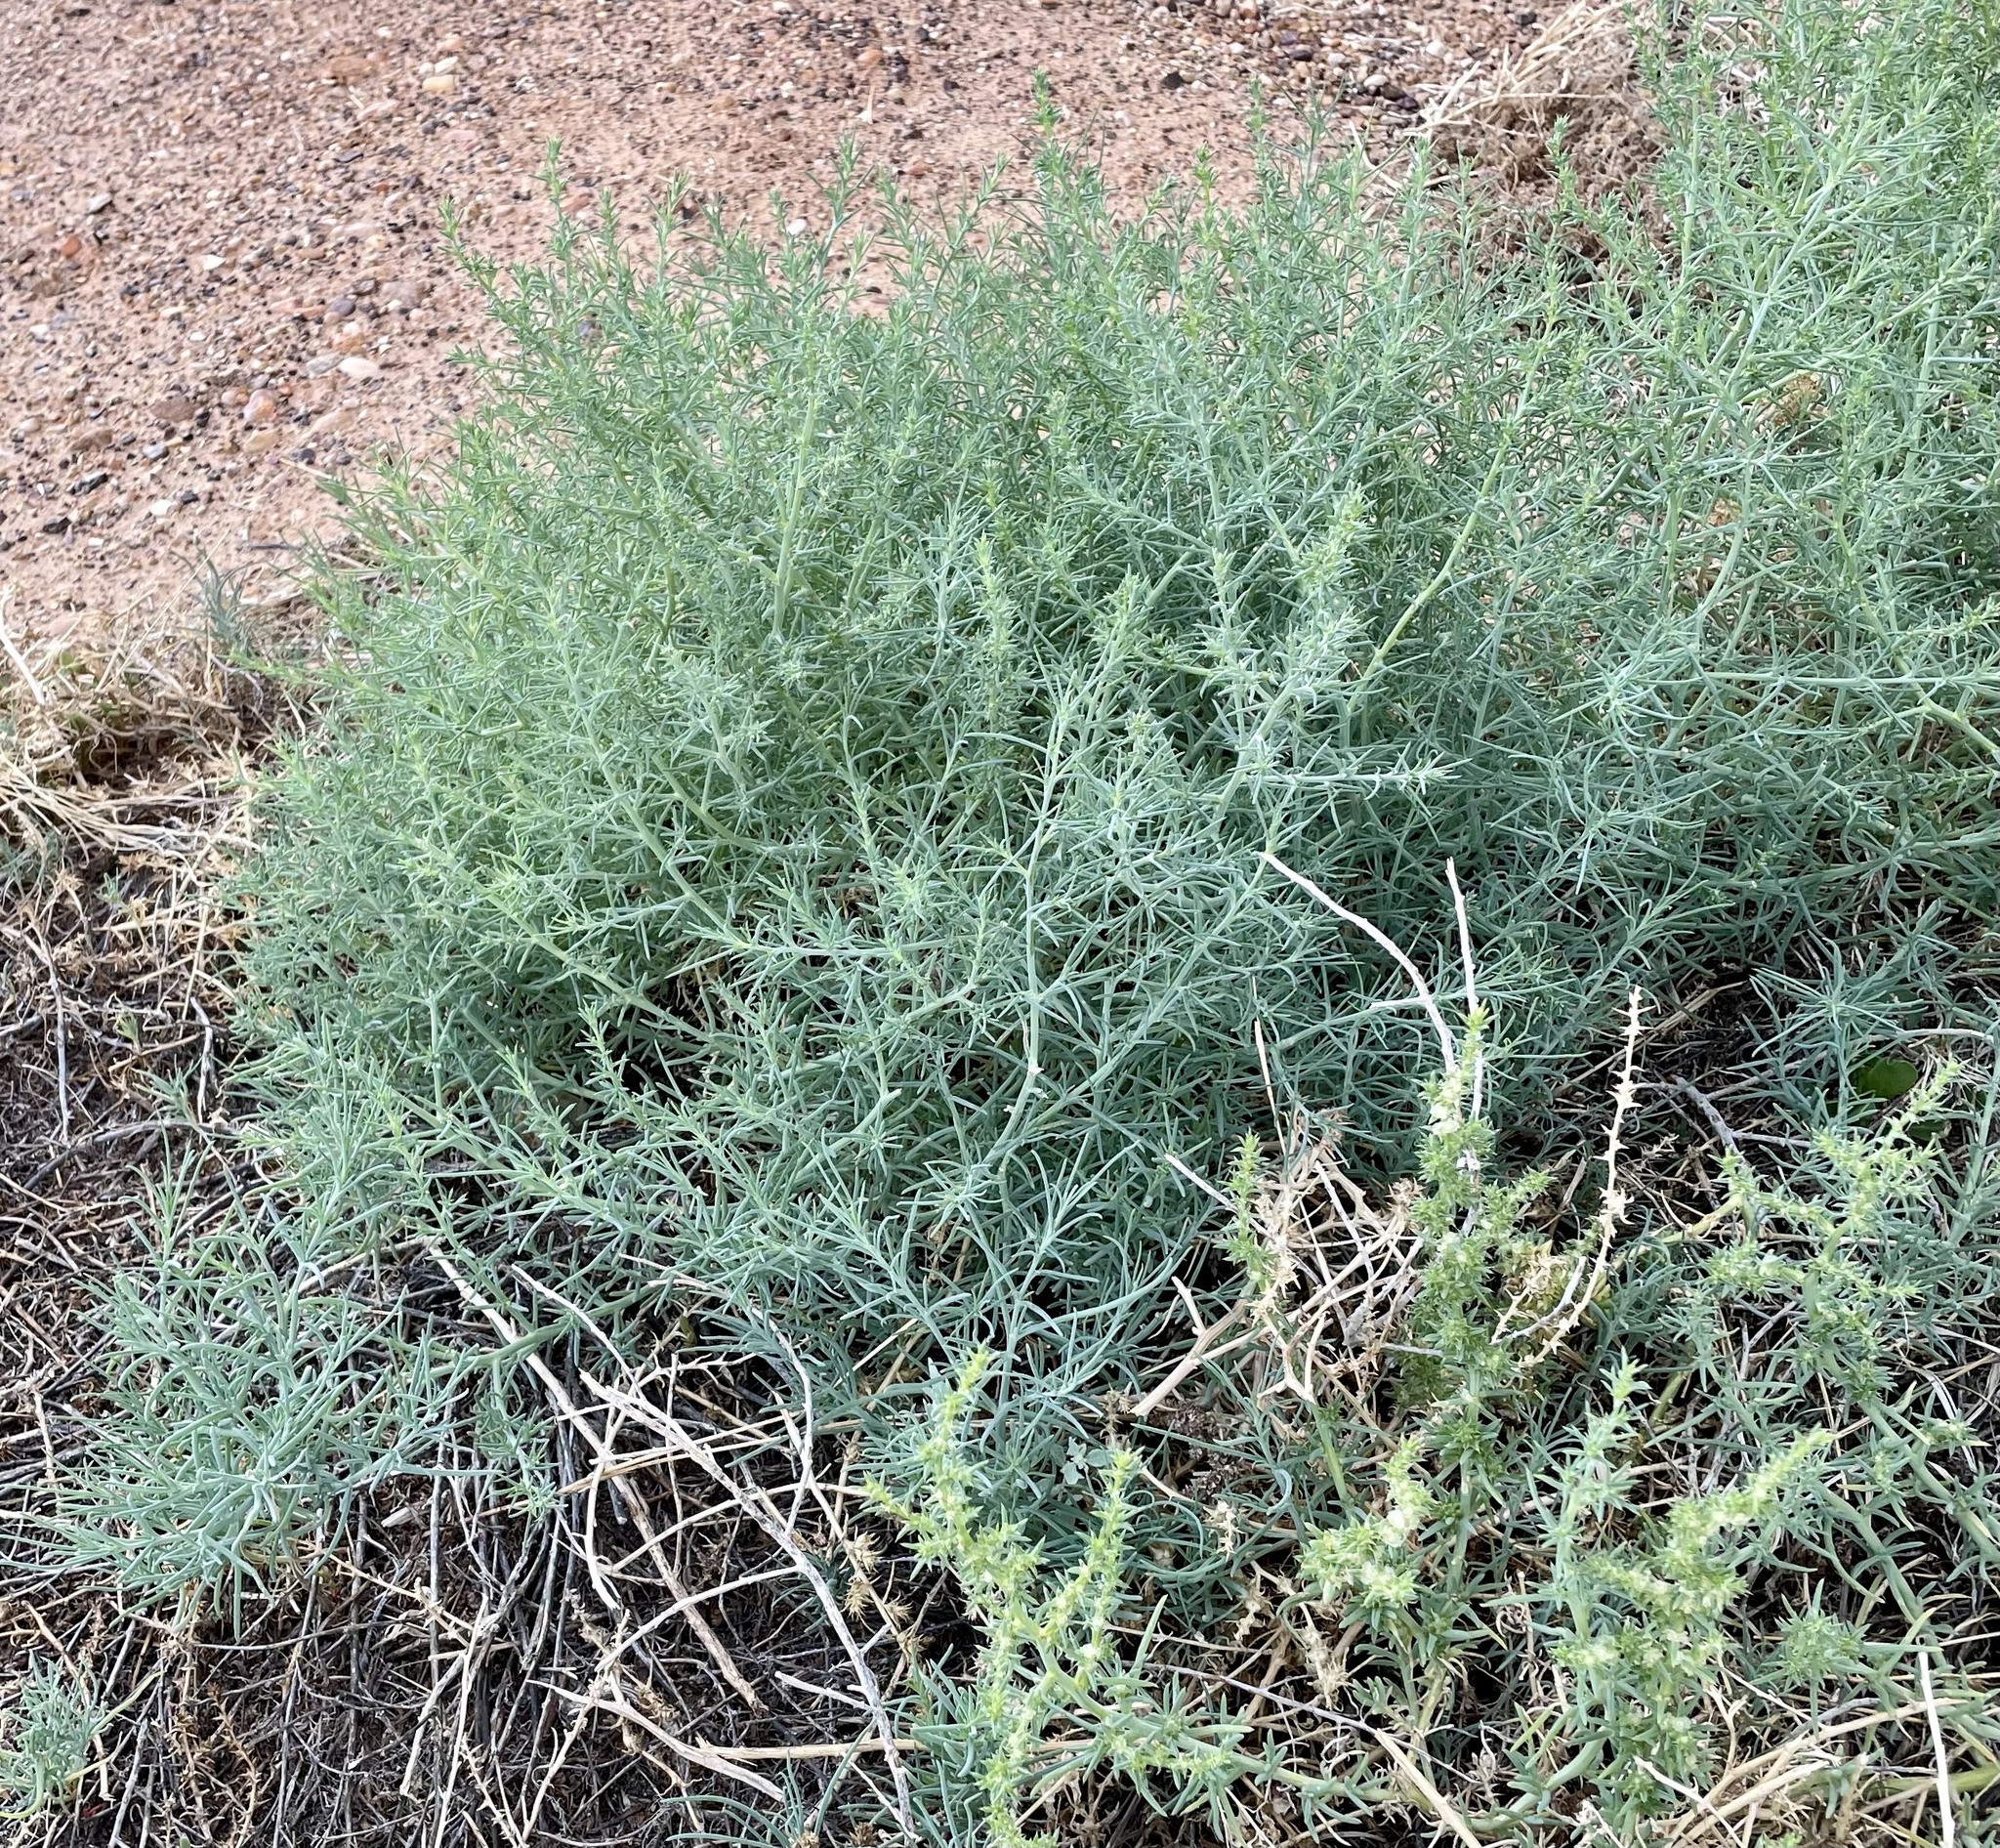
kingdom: Plantae
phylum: Tracheophyta
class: Magnoliopsida
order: Caryophyllales
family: Amaranthaceae
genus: Salsola
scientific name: Salsola australis
